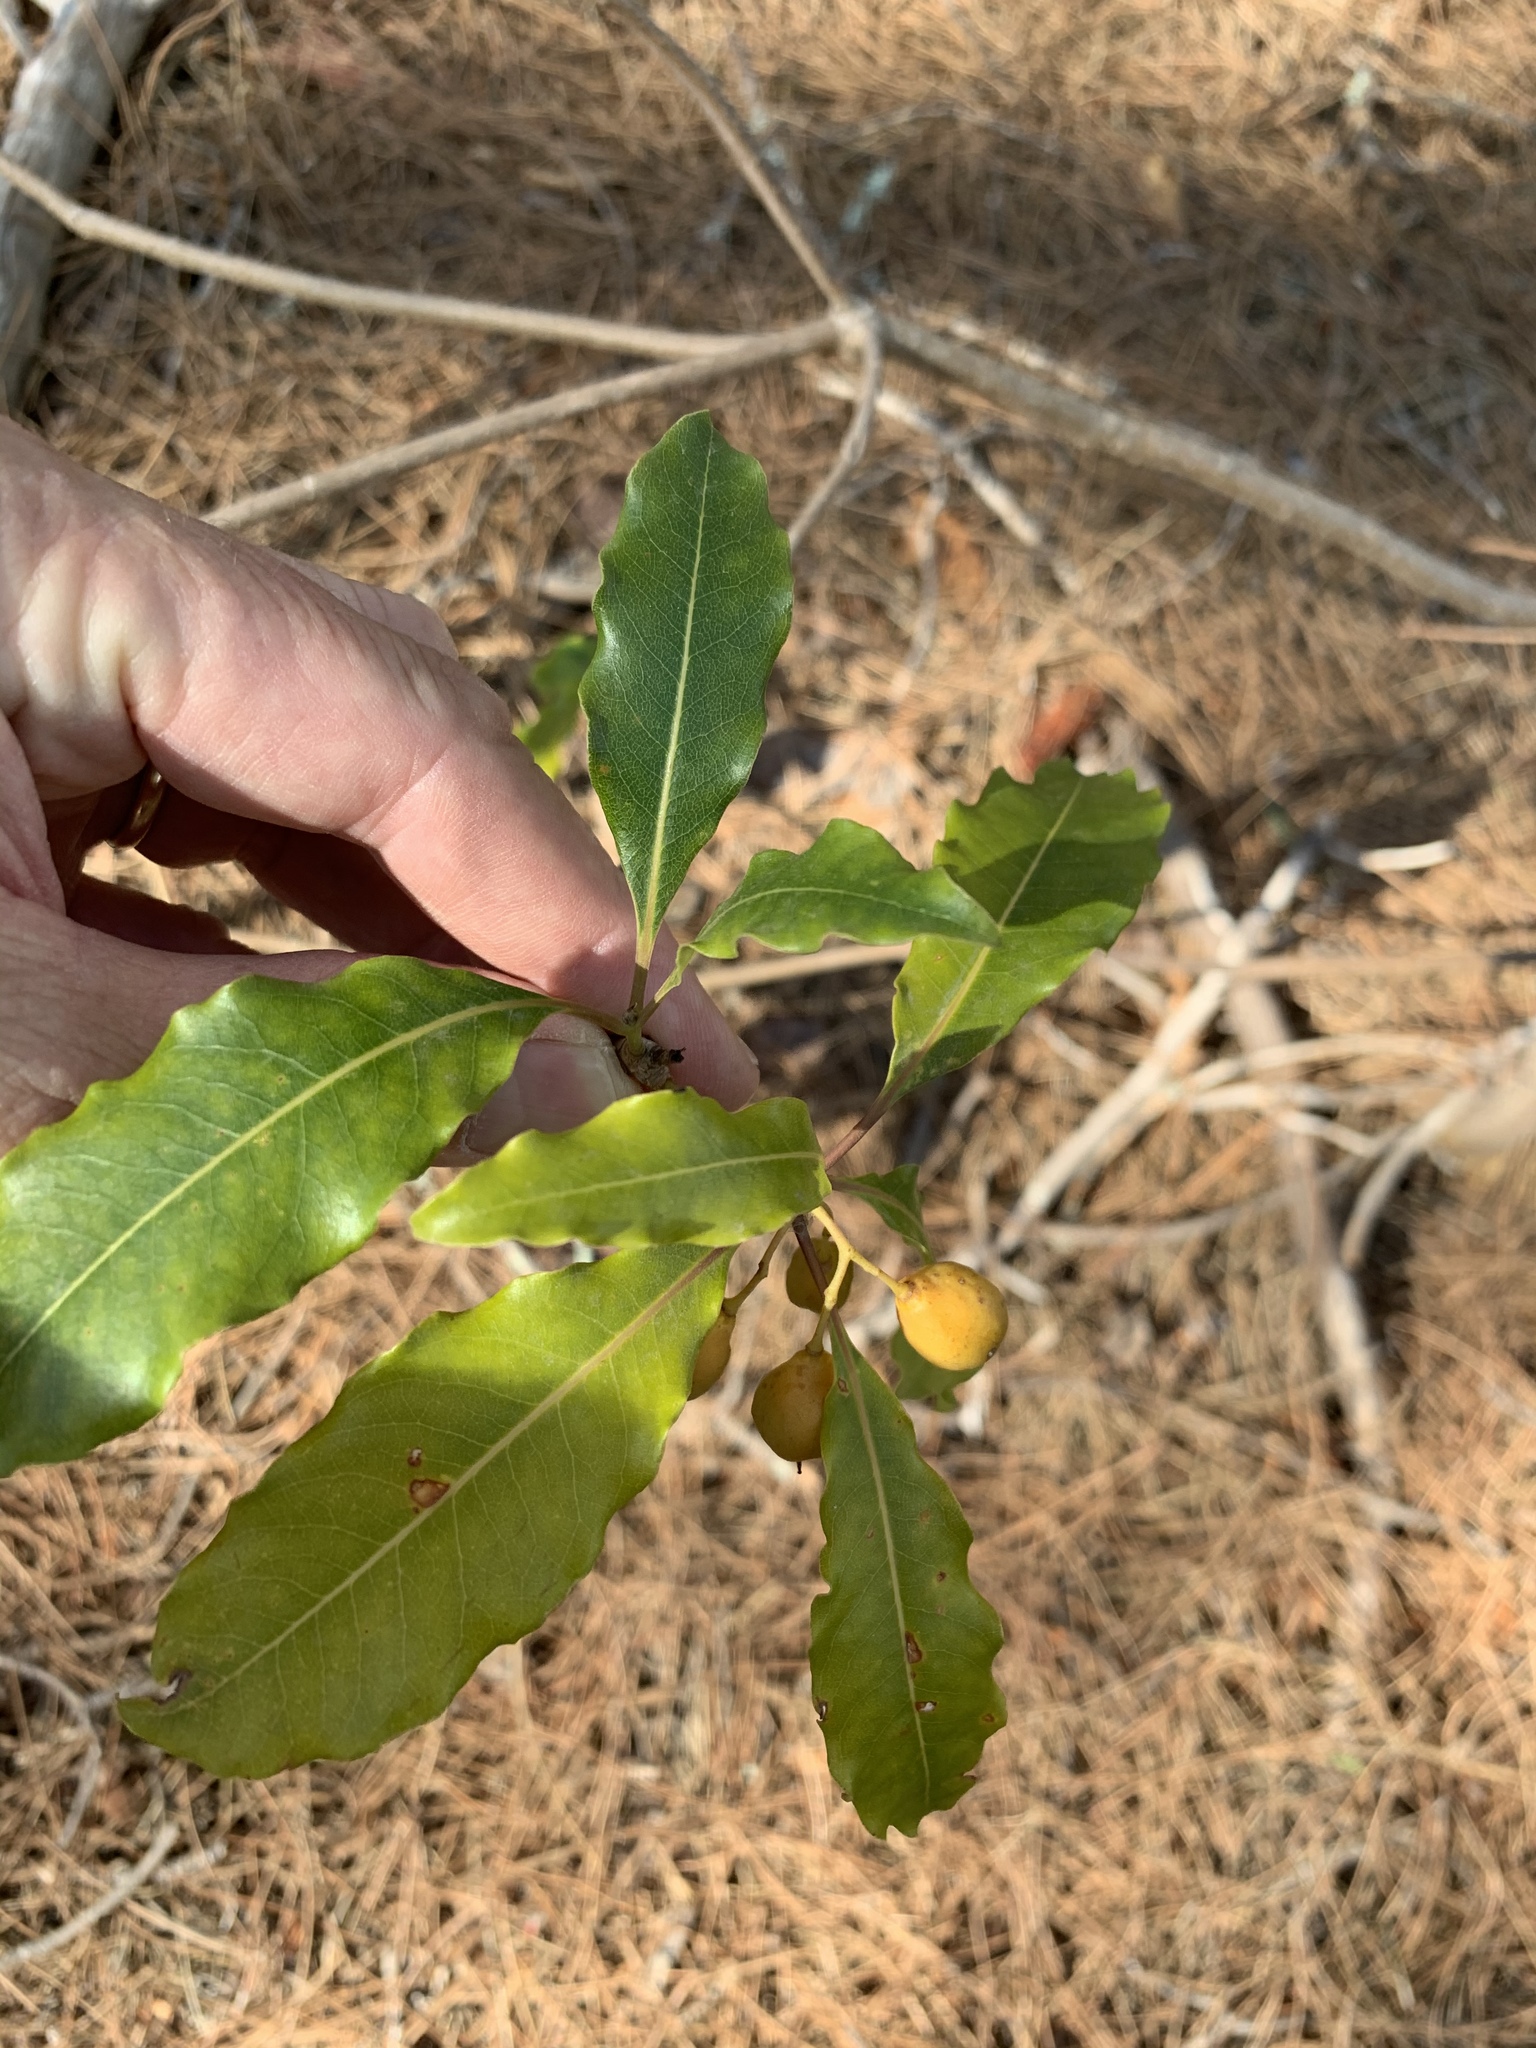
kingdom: Plantae
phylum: Tracheophyta
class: Magnoliopsida
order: Apiales
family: Pittosporaceae
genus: Pittosporum
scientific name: Pittosporum undulatum
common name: Australian cheesewood
